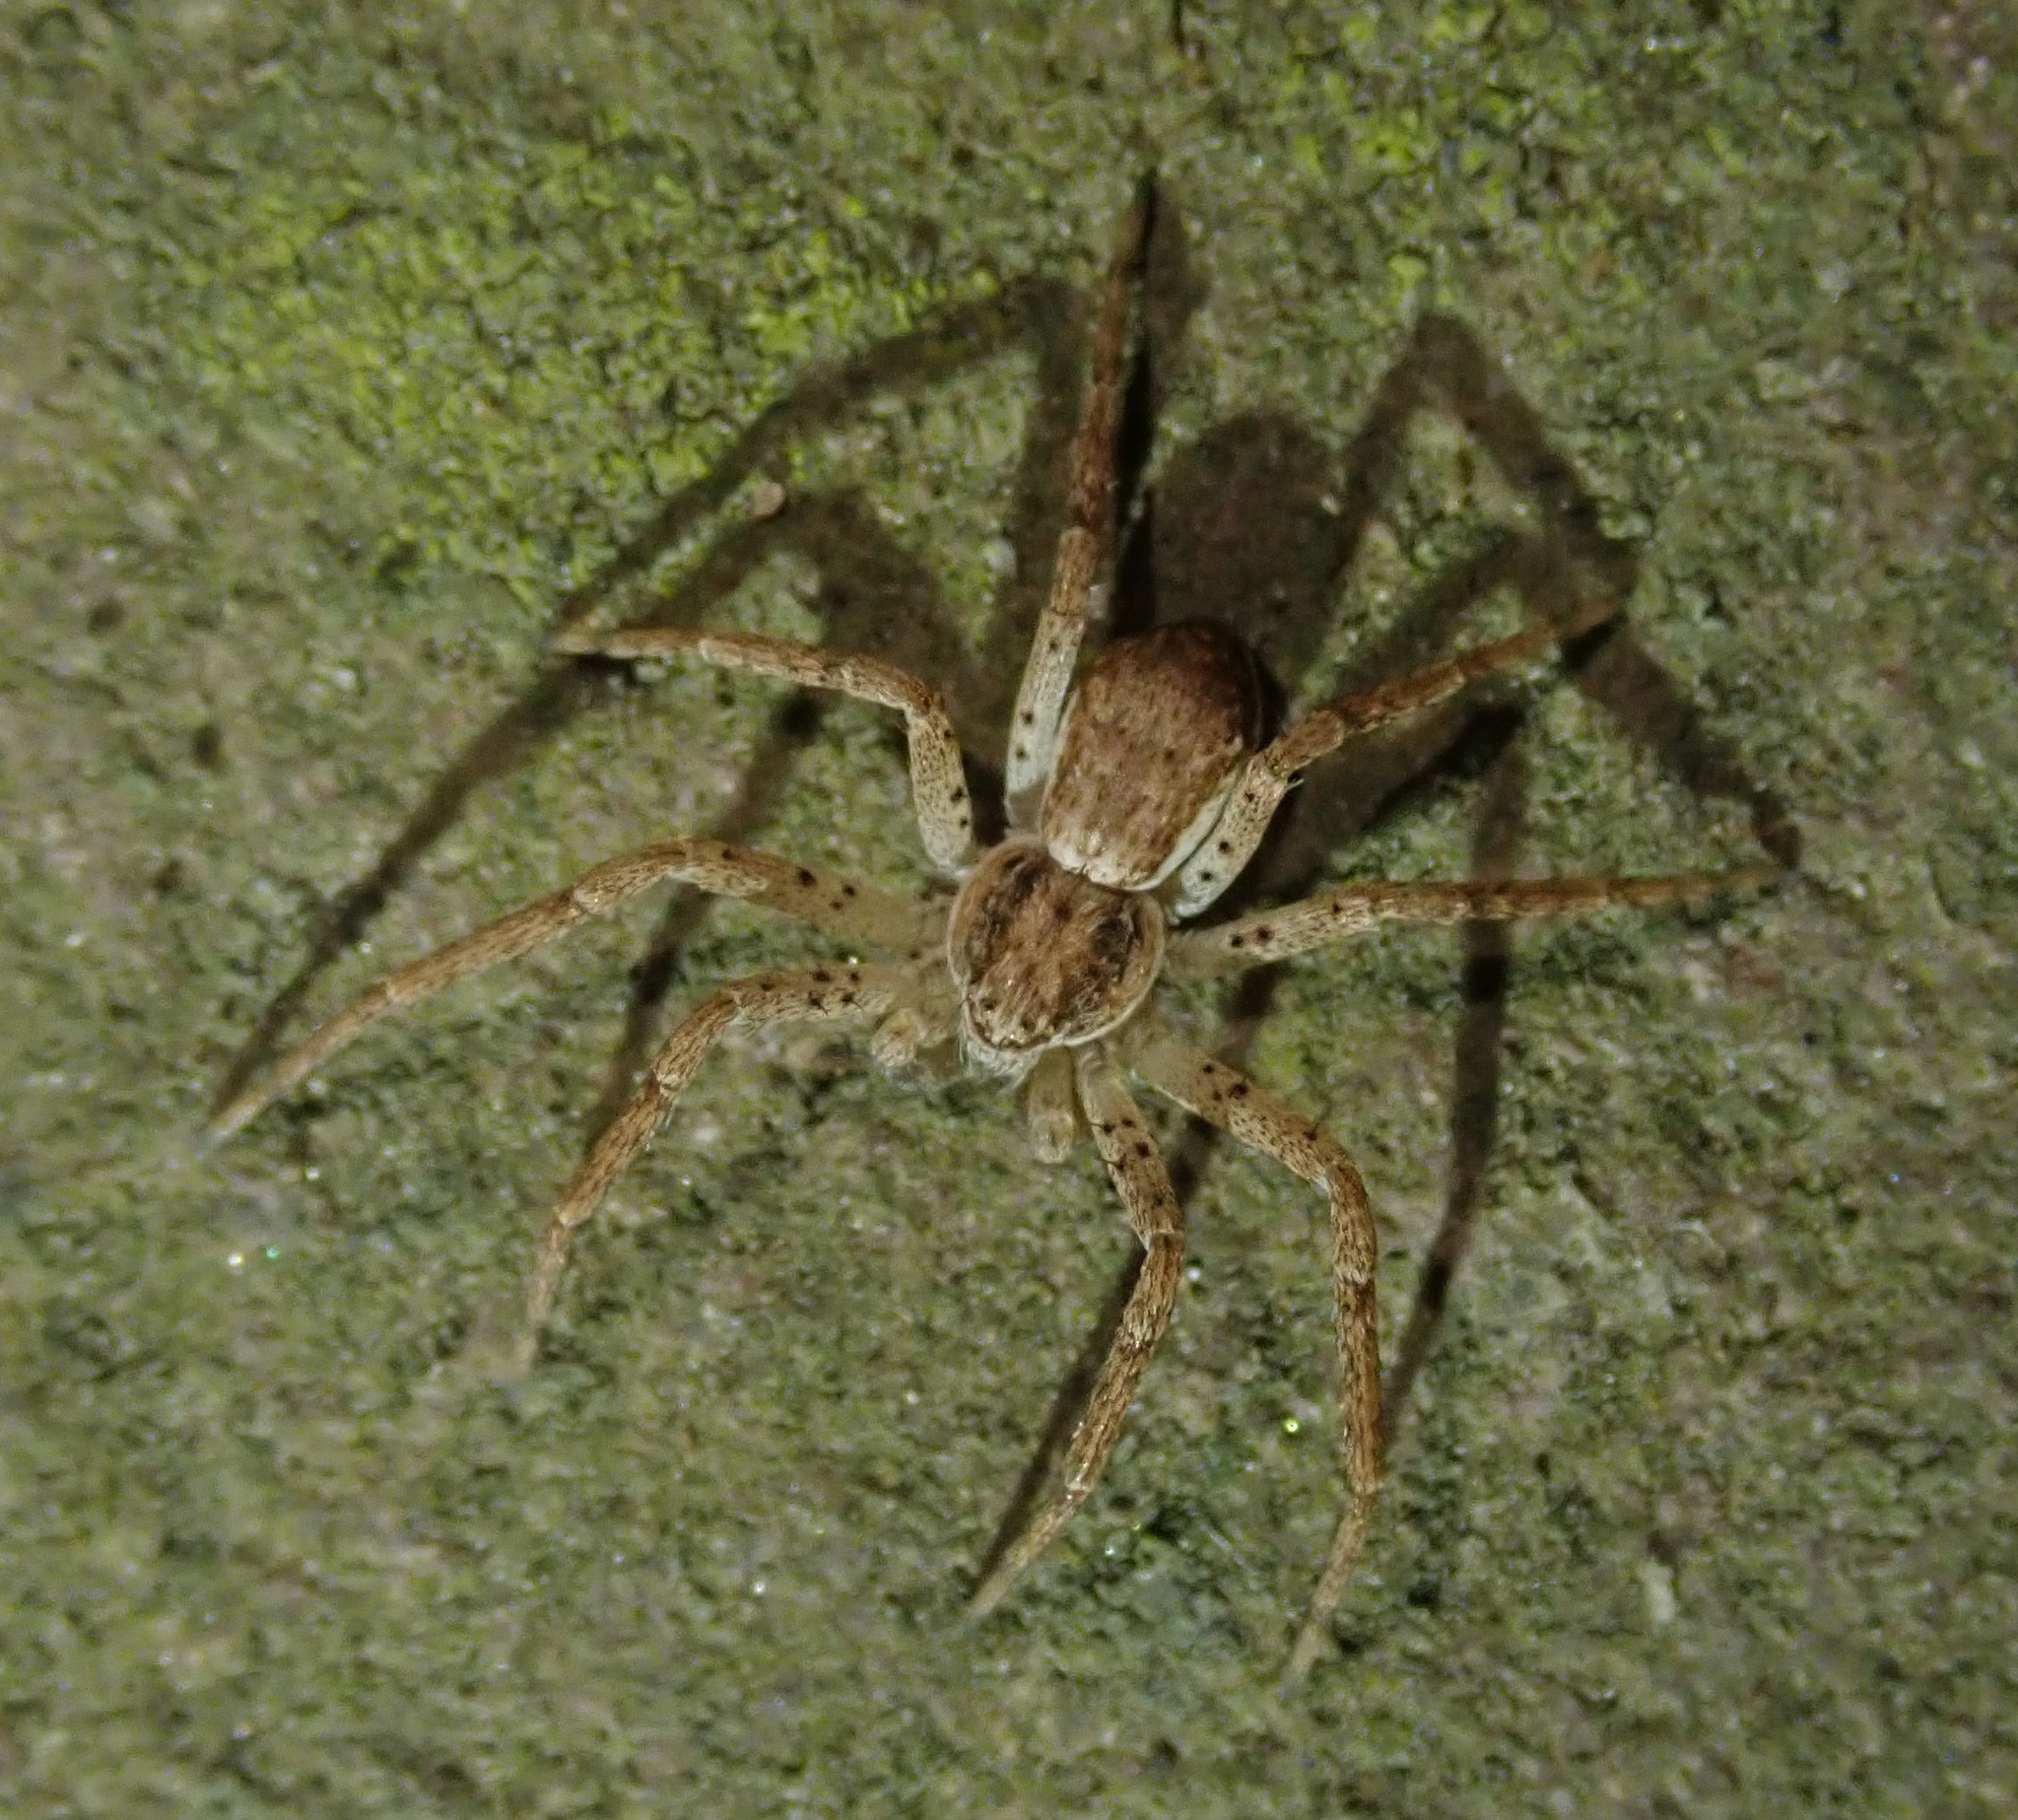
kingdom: Animalia
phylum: Arthropoda
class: Arachnida
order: Araneae
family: Philodromidae
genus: Philodromus
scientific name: Philodromus dispar
